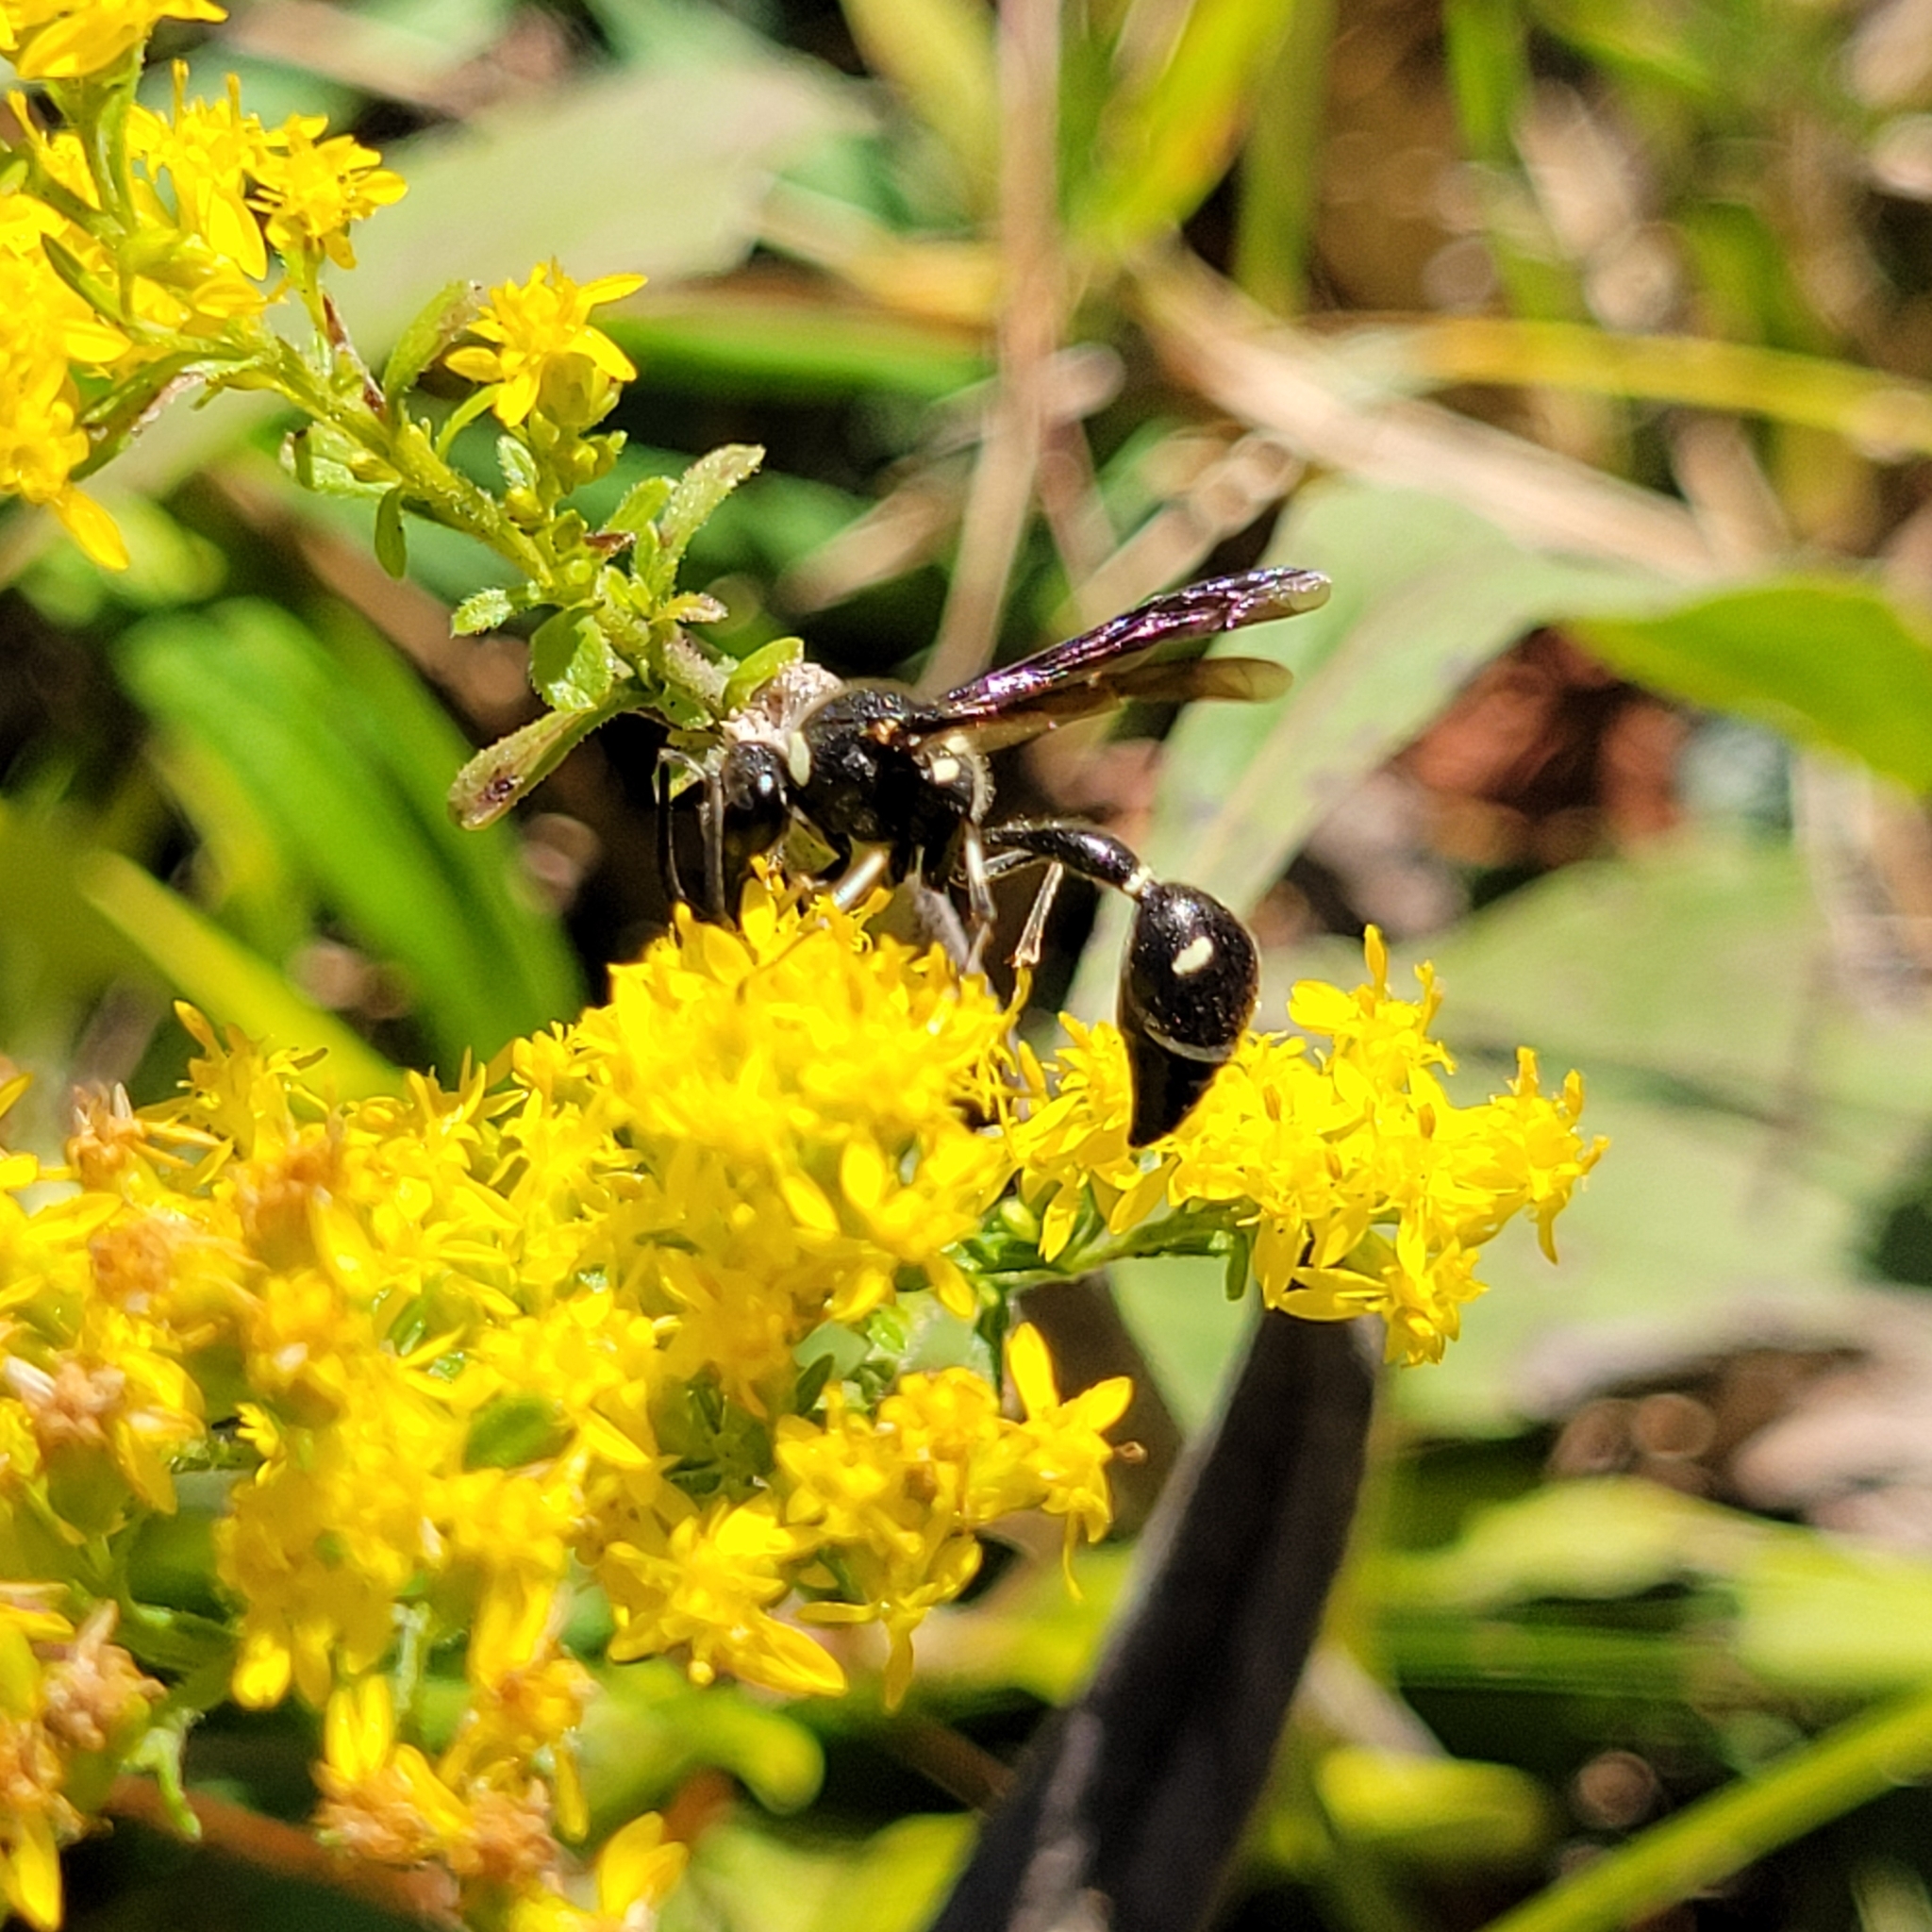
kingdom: Animalia
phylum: Arthropoda
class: Insecta
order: Hymenoptera
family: Vespidae
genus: Eumenes
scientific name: Eumenes fraternus
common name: Fraternal potter wasp
